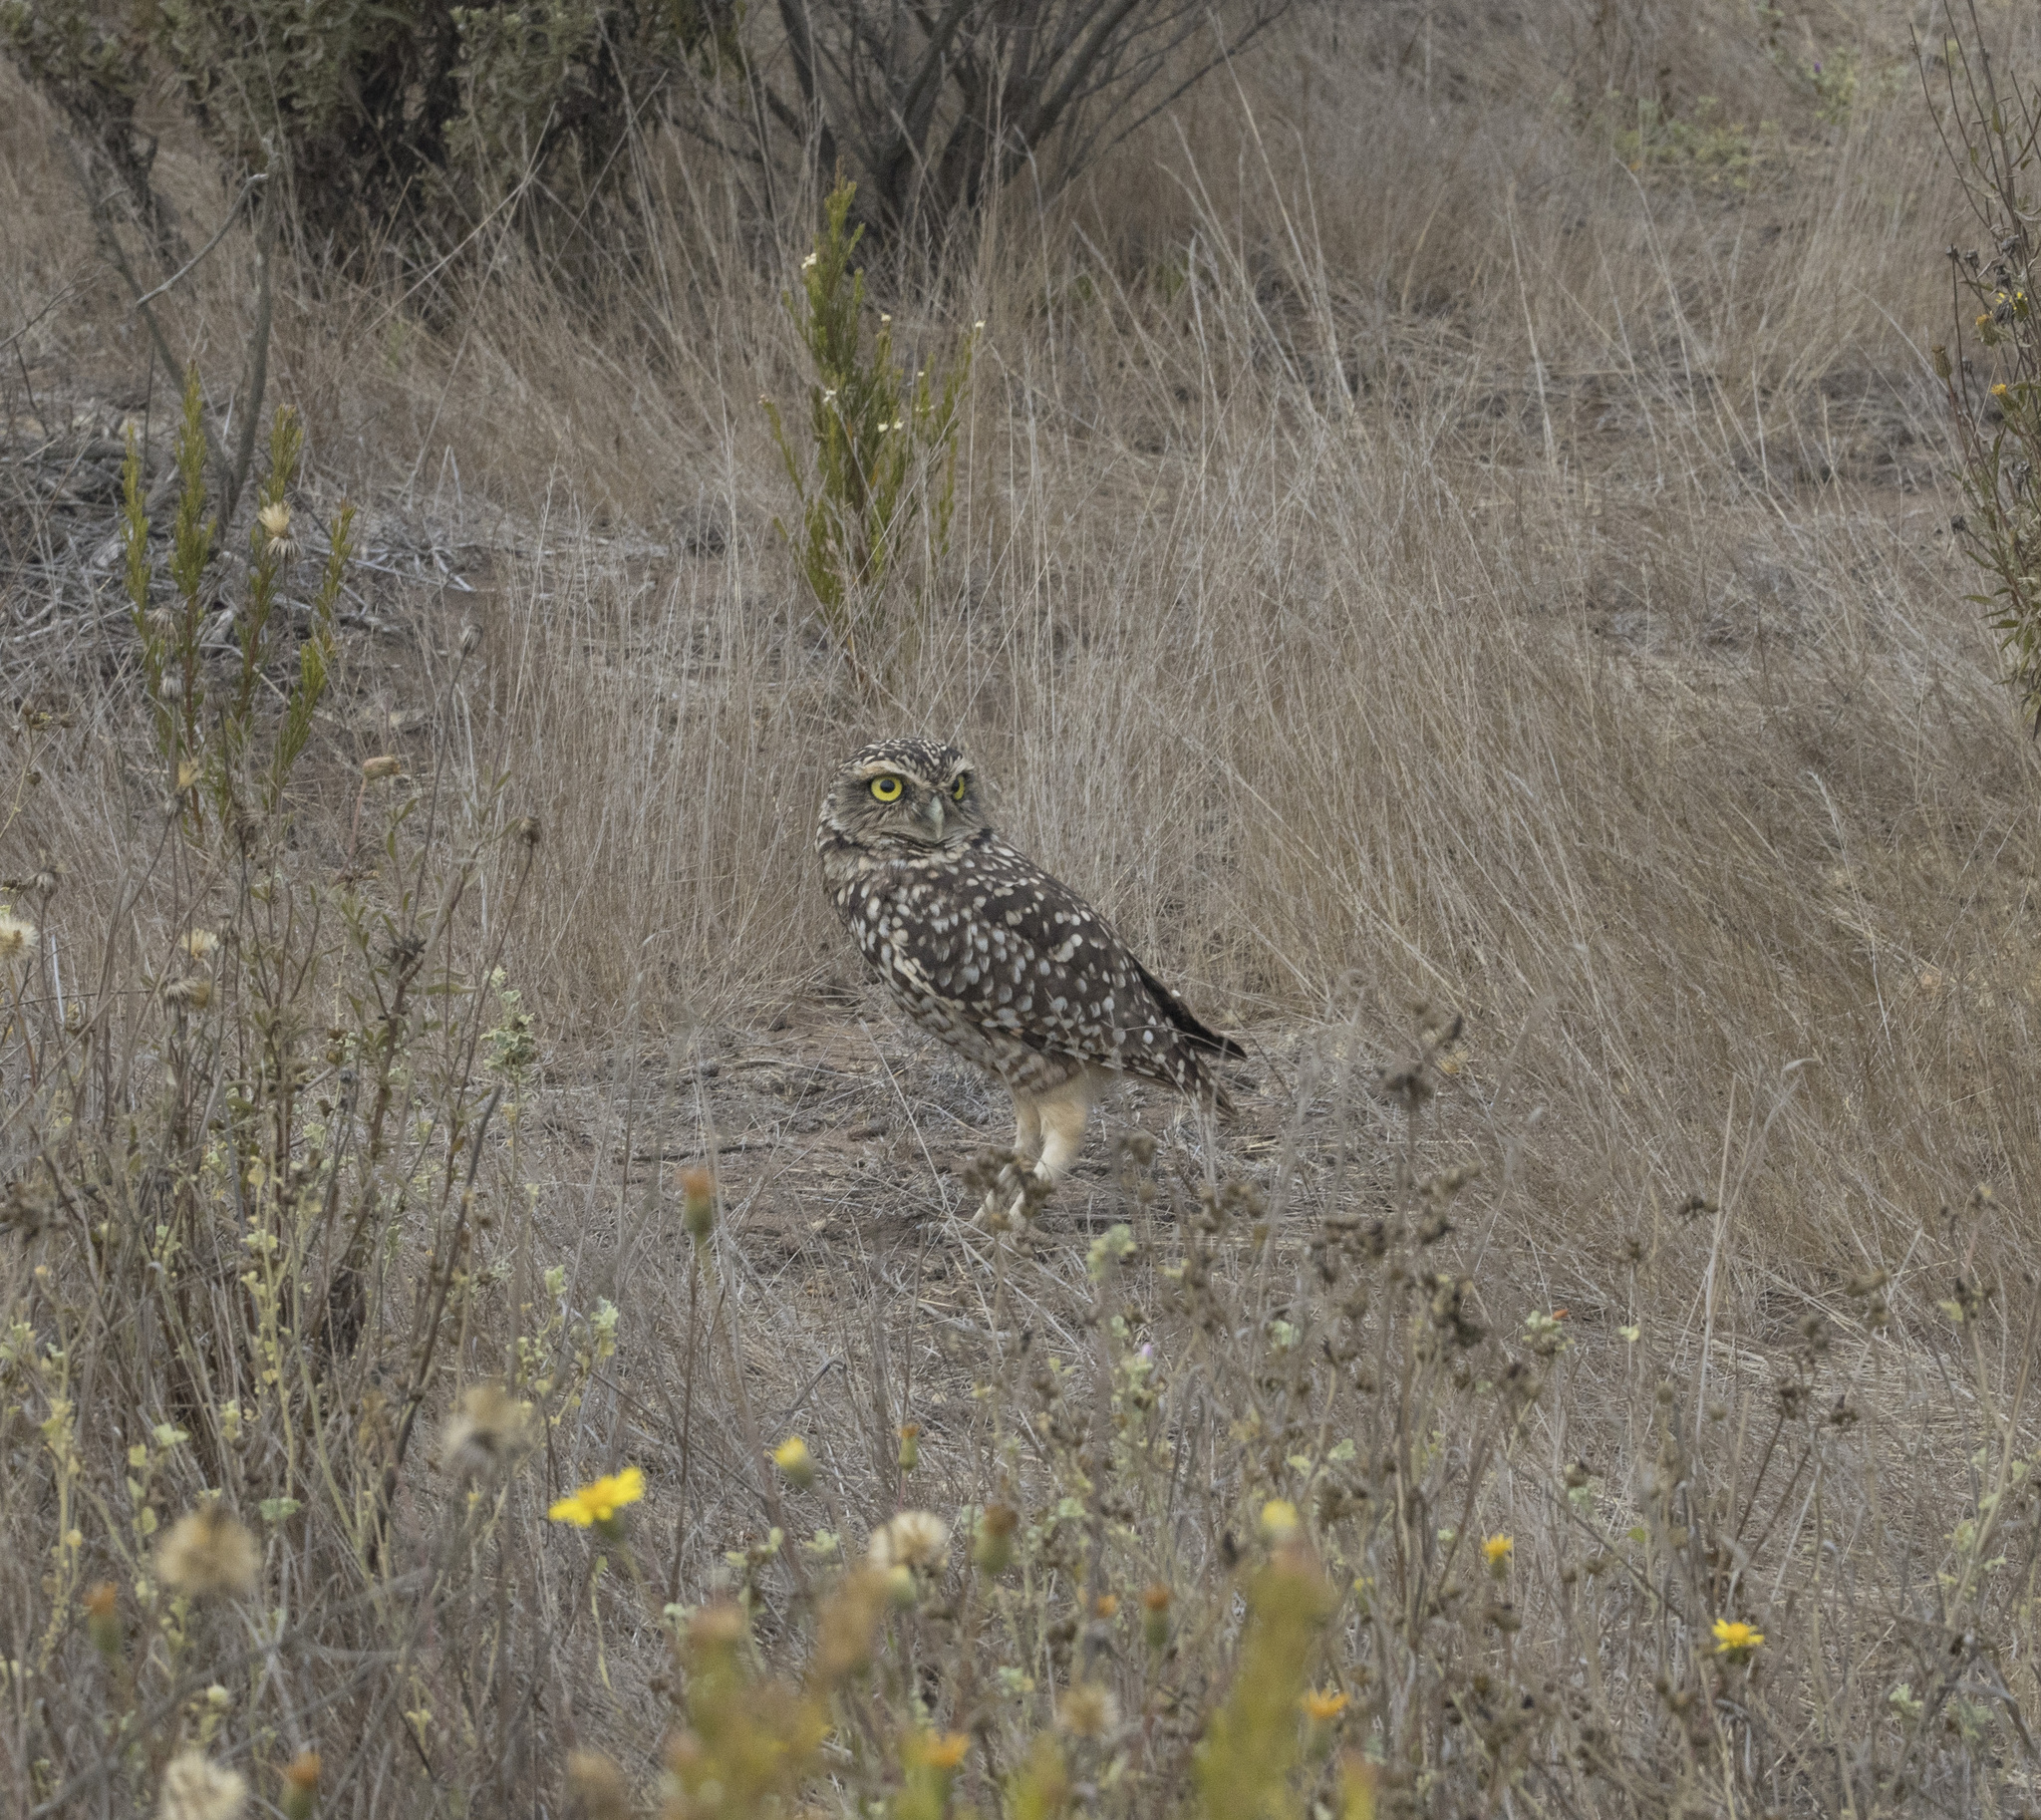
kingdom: Animalia
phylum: Chordata
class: Aves
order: Strigiformes
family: Strigidae
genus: Athene
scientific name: Athene cunicularia
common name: Burrowing owl
